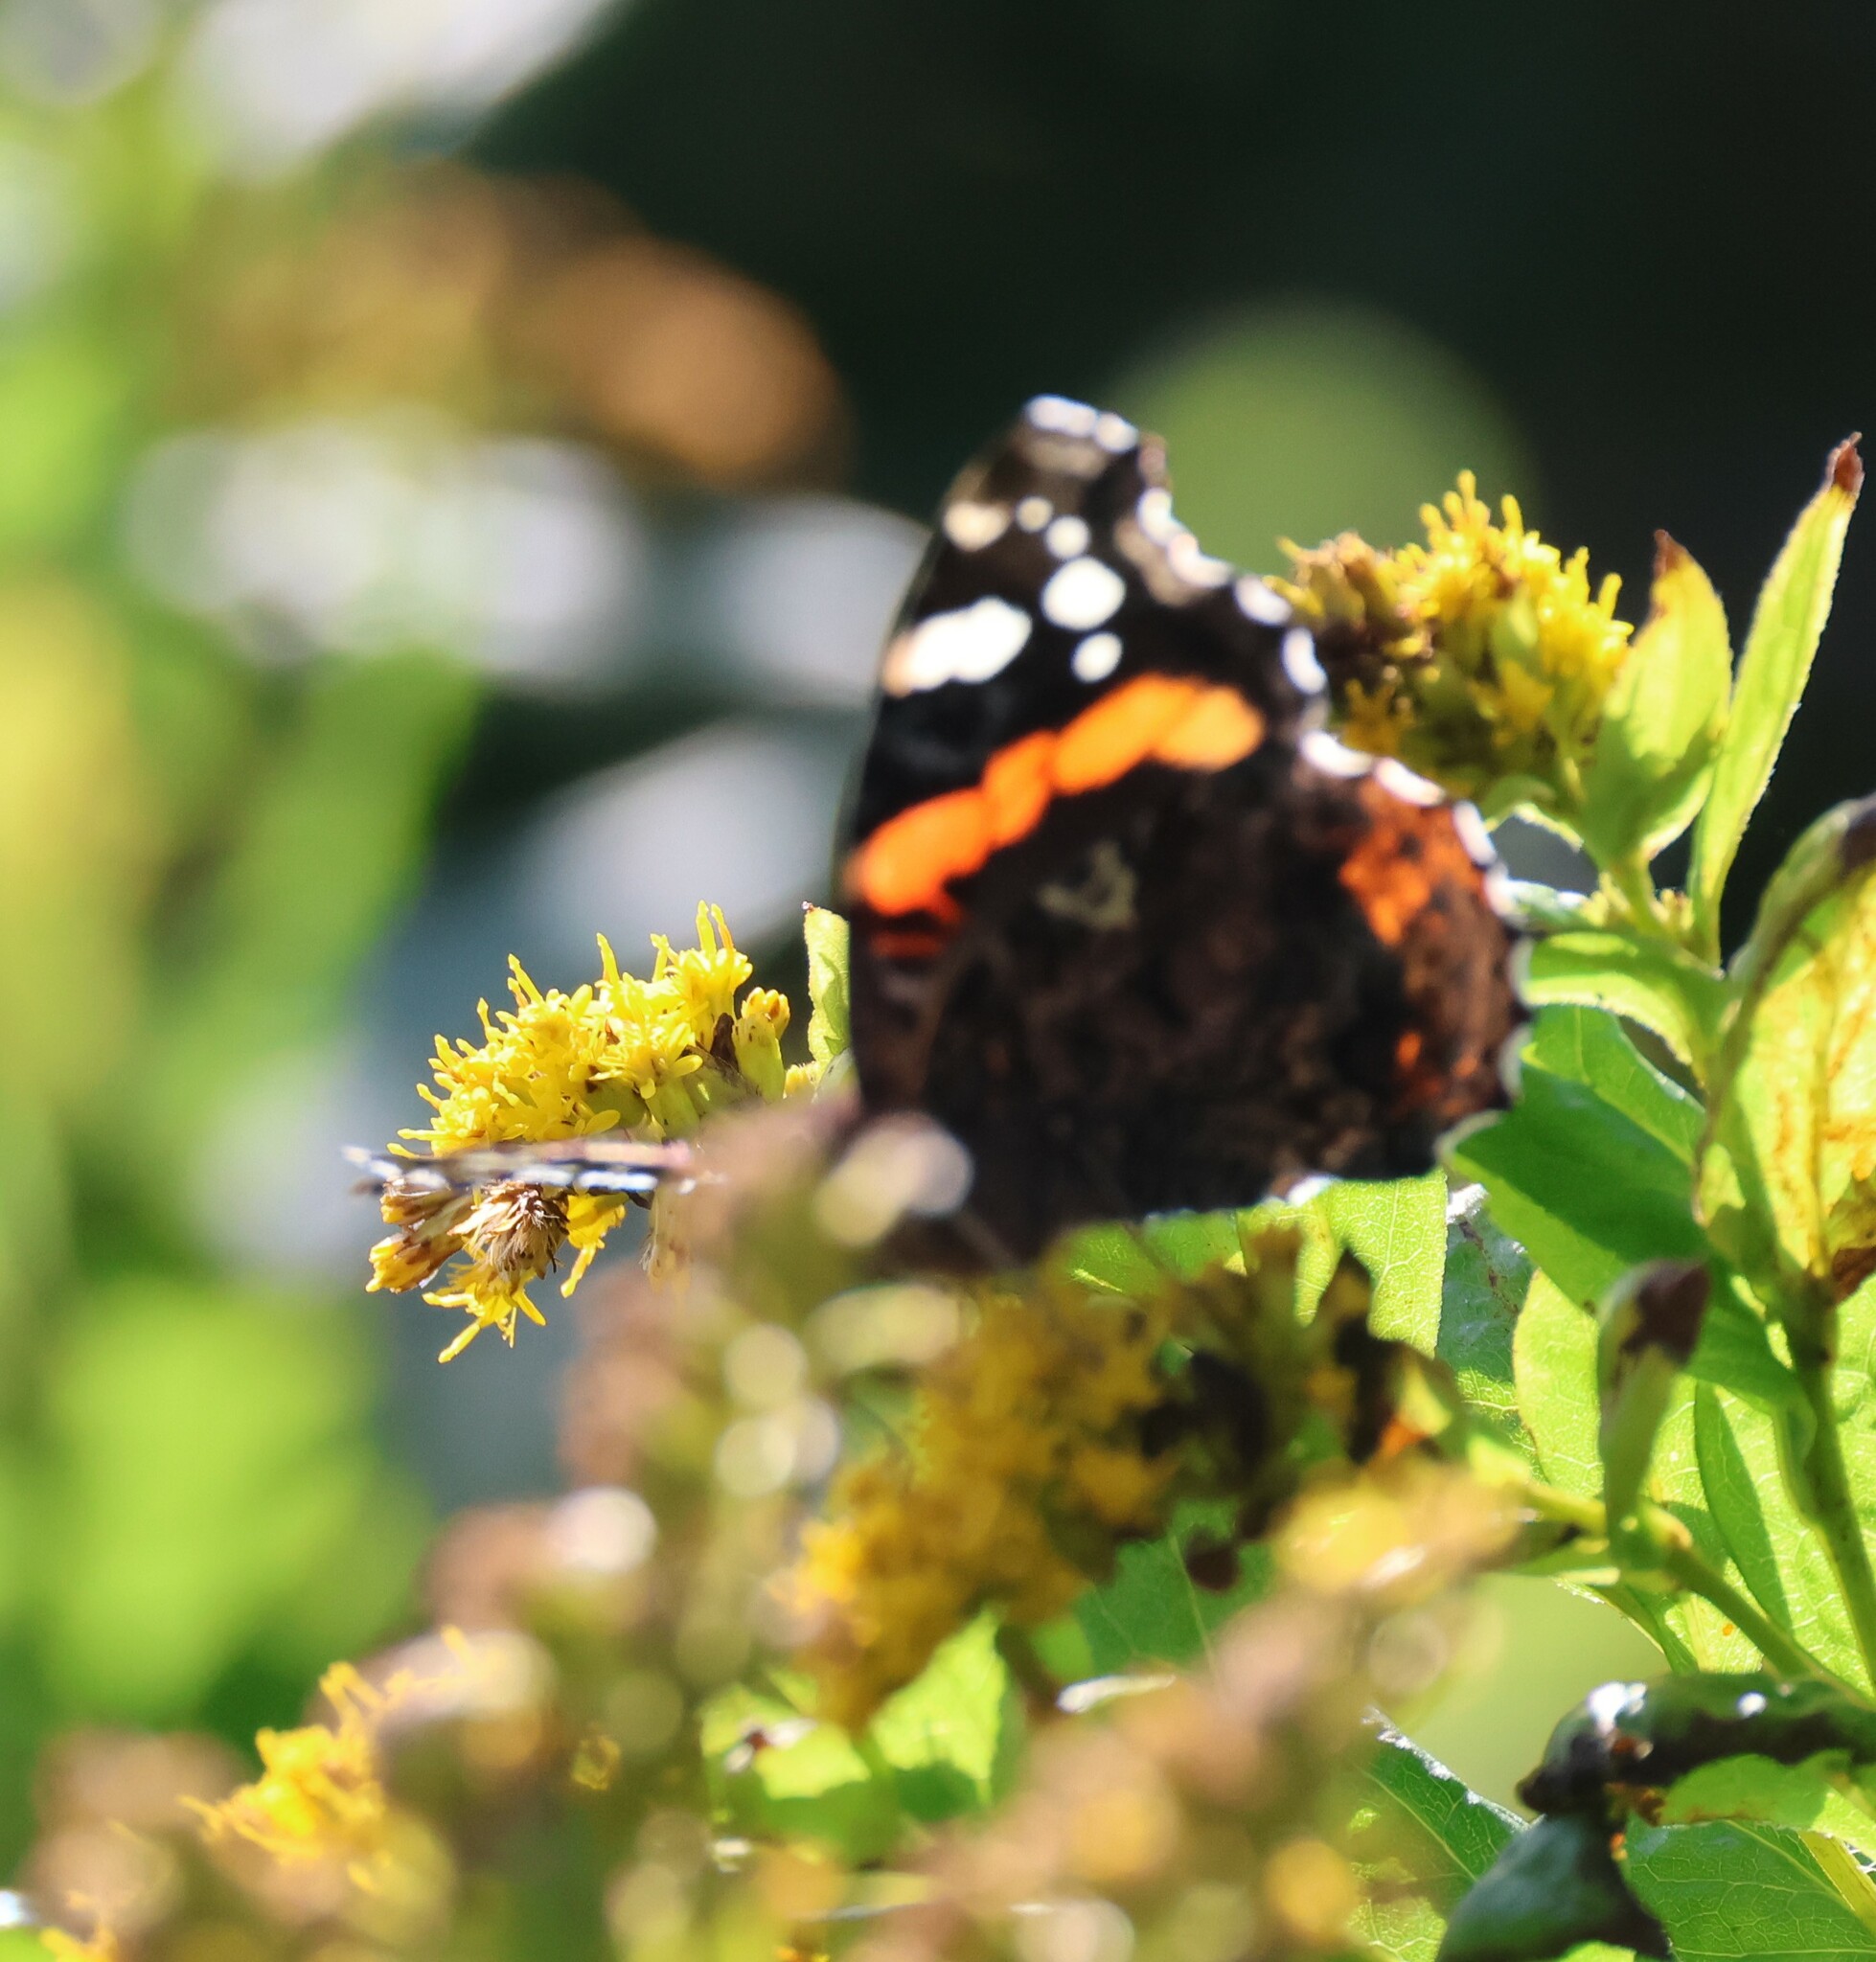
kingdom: Animalia
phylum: Arthropoda
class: Insecta
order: Lepidoptera
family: Nymphalidae
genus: Vanessa
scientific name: Vanessa atalanta
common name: Red admiral
